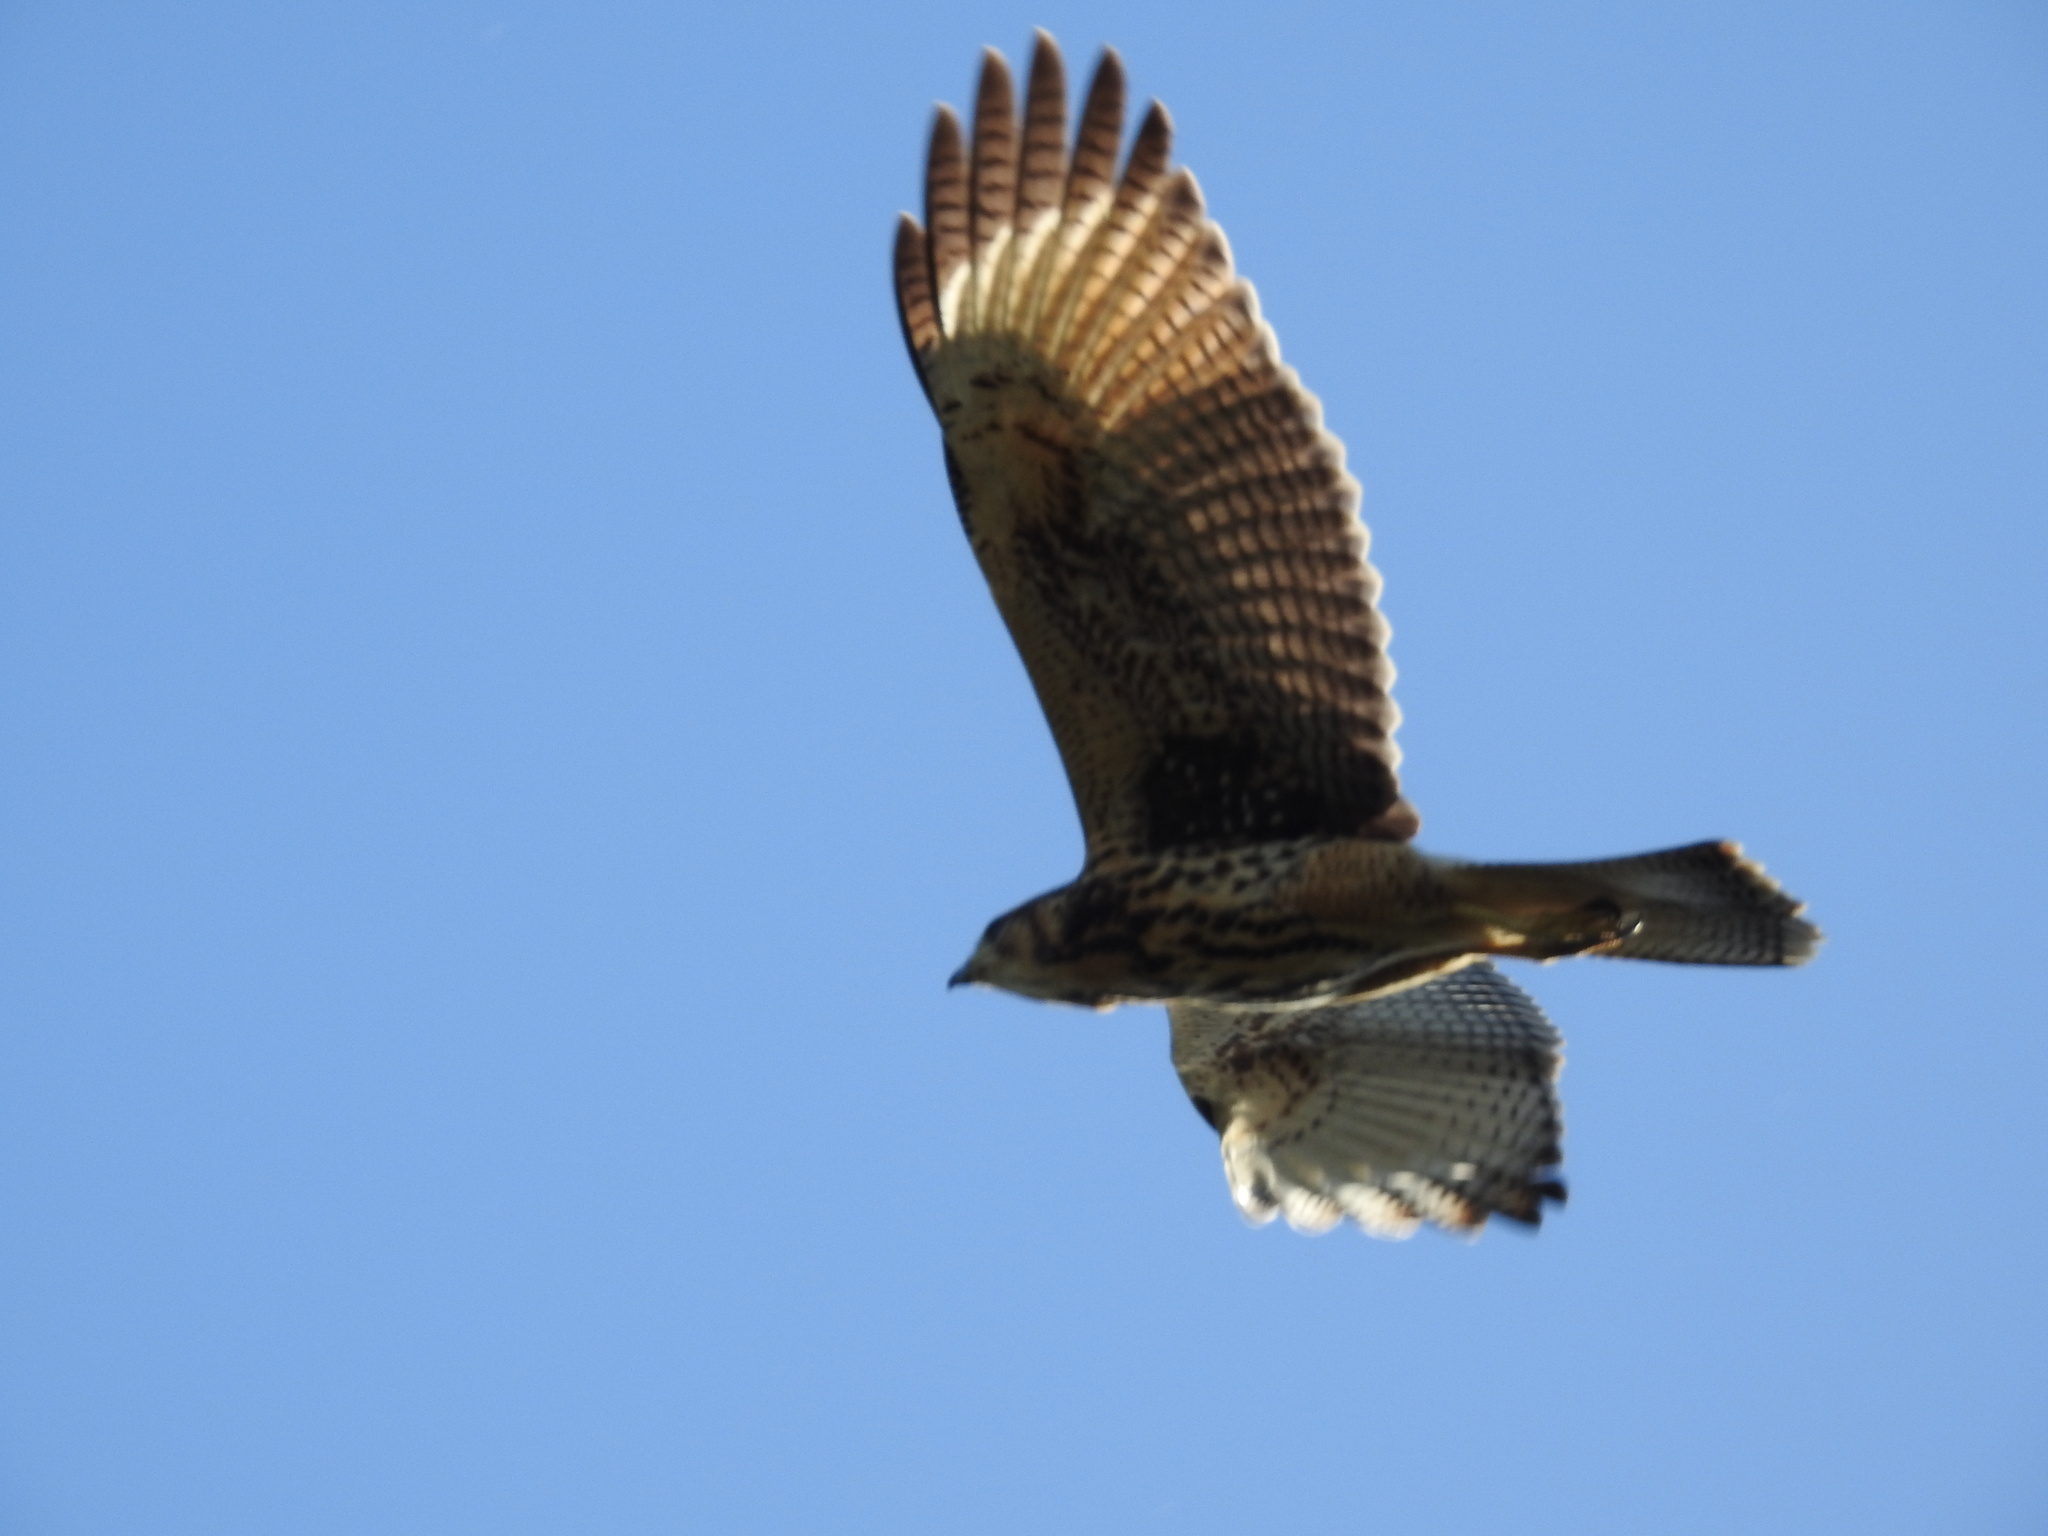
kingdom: Animalia
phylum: Chordata
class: Aves
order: Accipitriformes
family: Accipitridae
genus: Parabuteo
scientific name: Parabuteo unicinctus
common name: Harris's hawk
